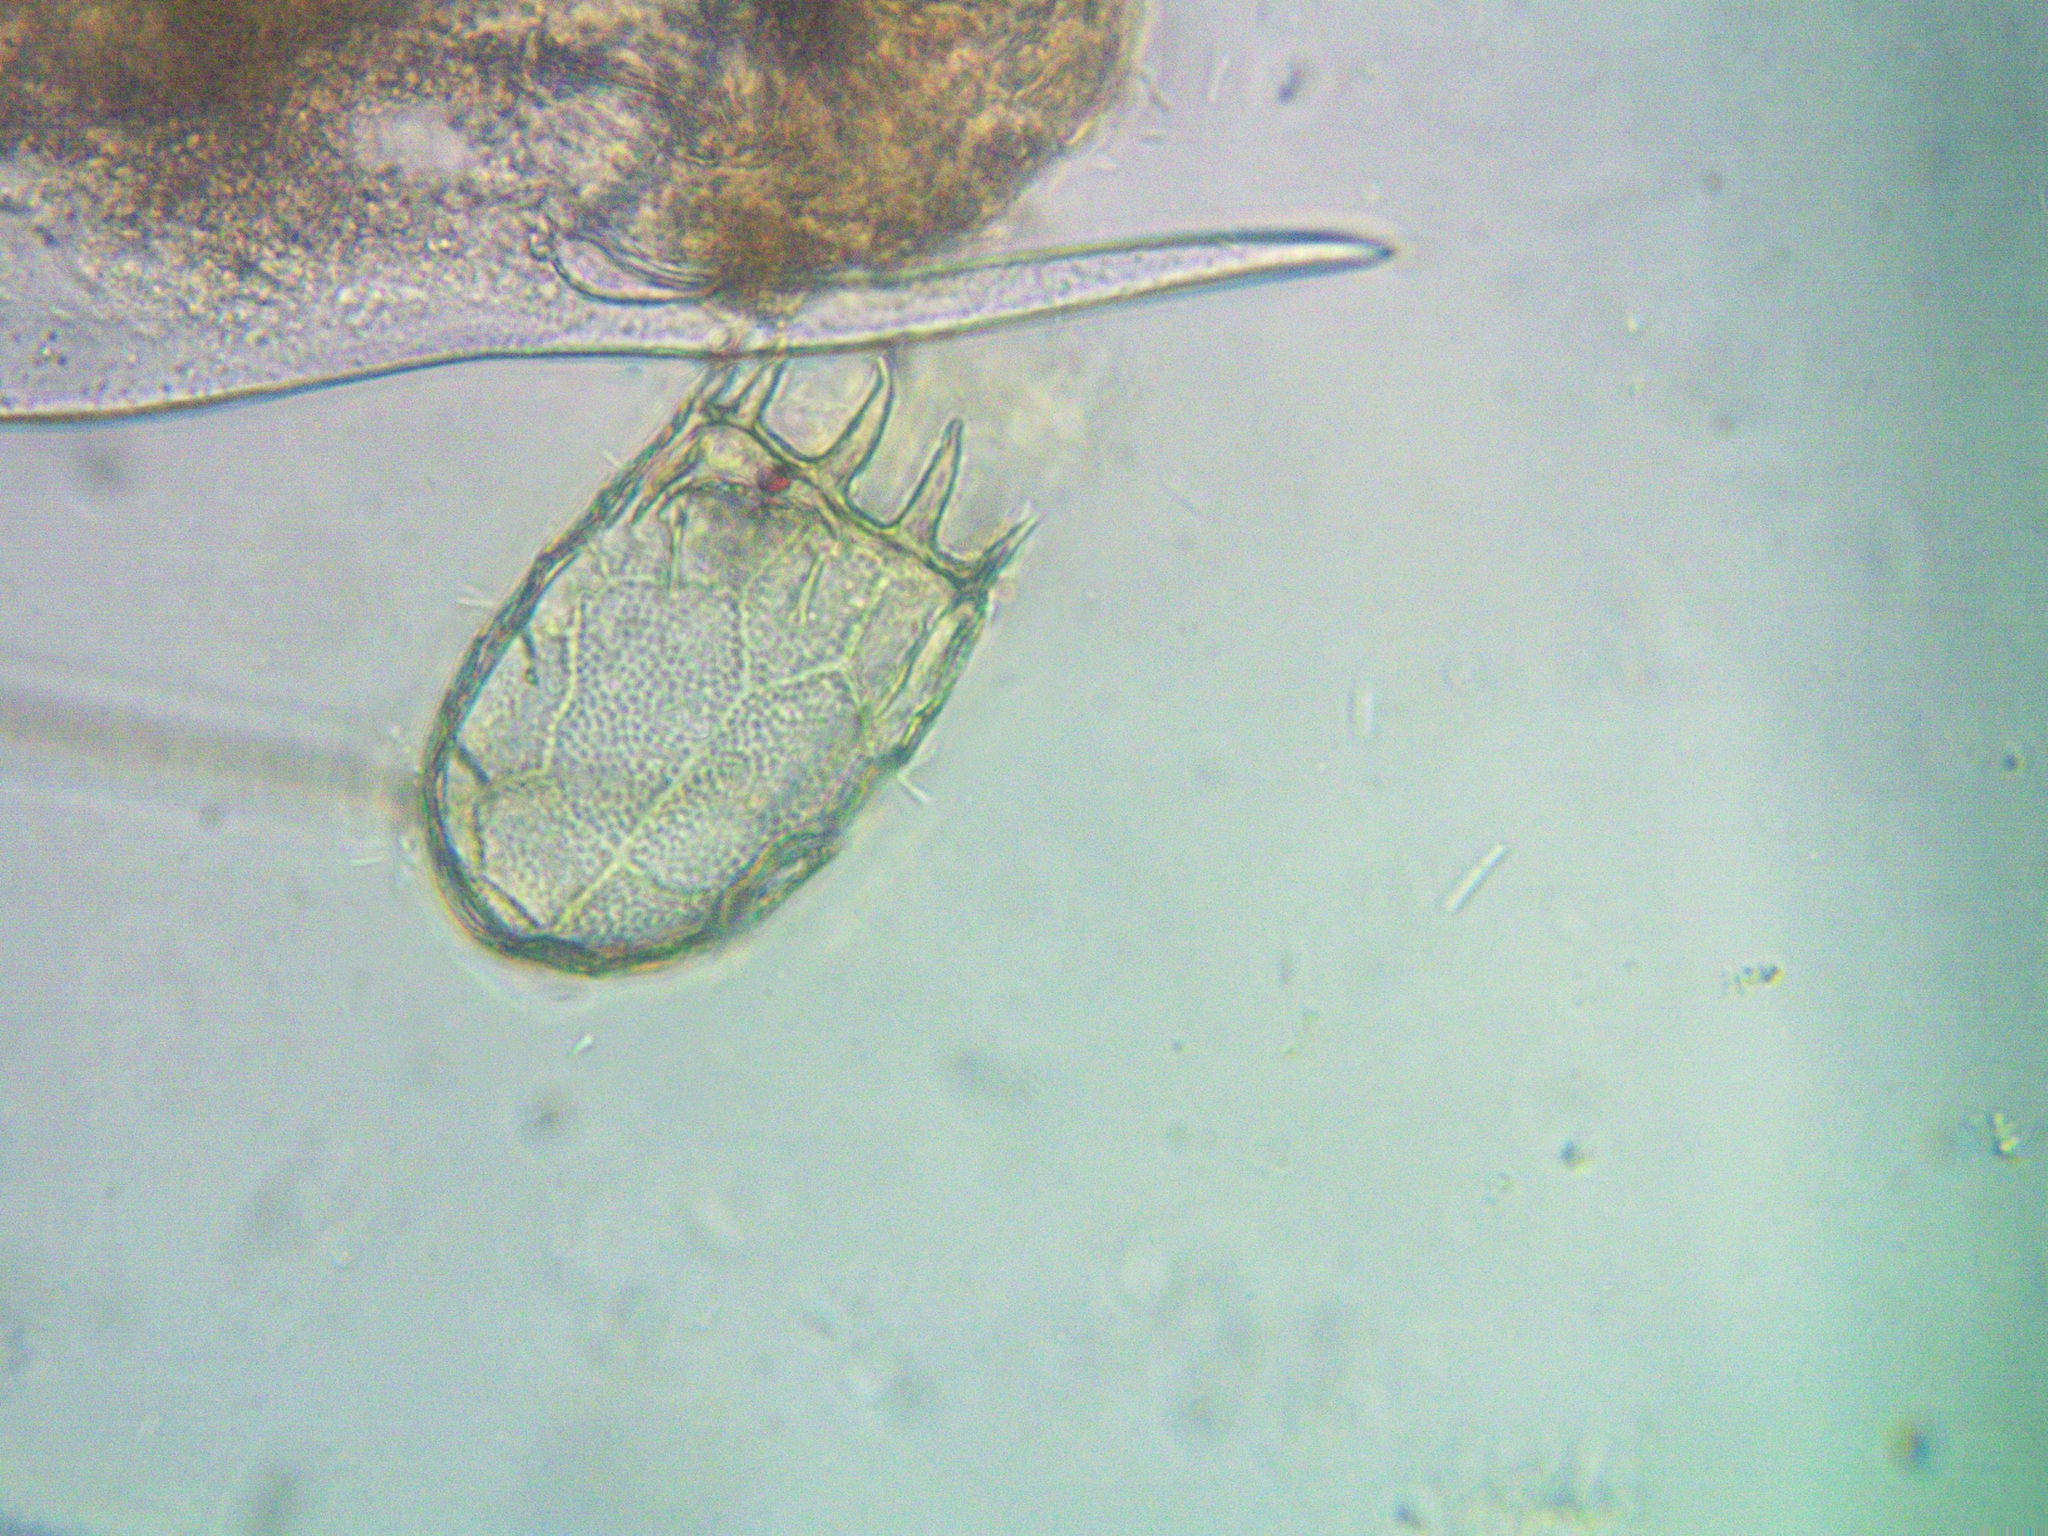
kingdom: Animalia
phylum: Rotifera
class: Eurotatoria
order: Ploima
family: Brachionidae
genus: Keratella
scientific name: Keratella cochlearis
